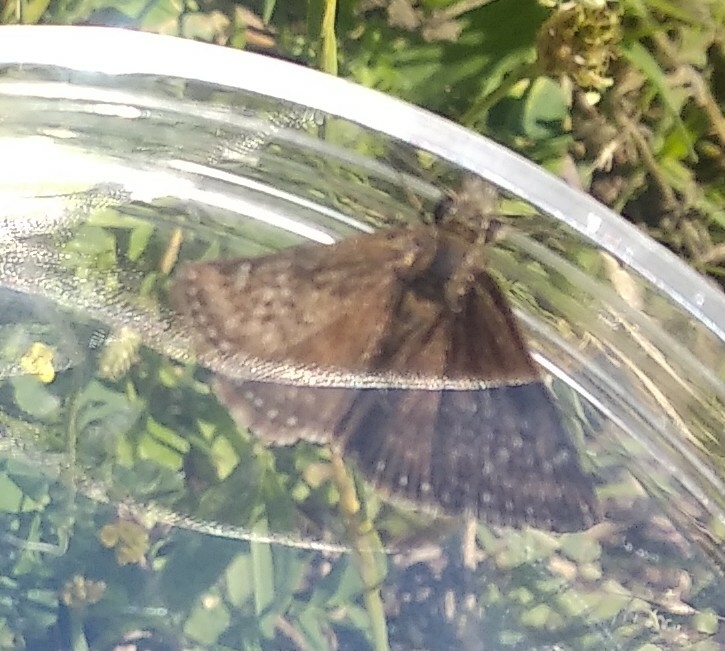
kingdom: Animalia
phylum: Arthropoda
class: Insecta
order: Lepidoptera
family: Hesperiidae
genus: Erynnis
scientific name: Erynnis tages
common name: Dingy skipper
